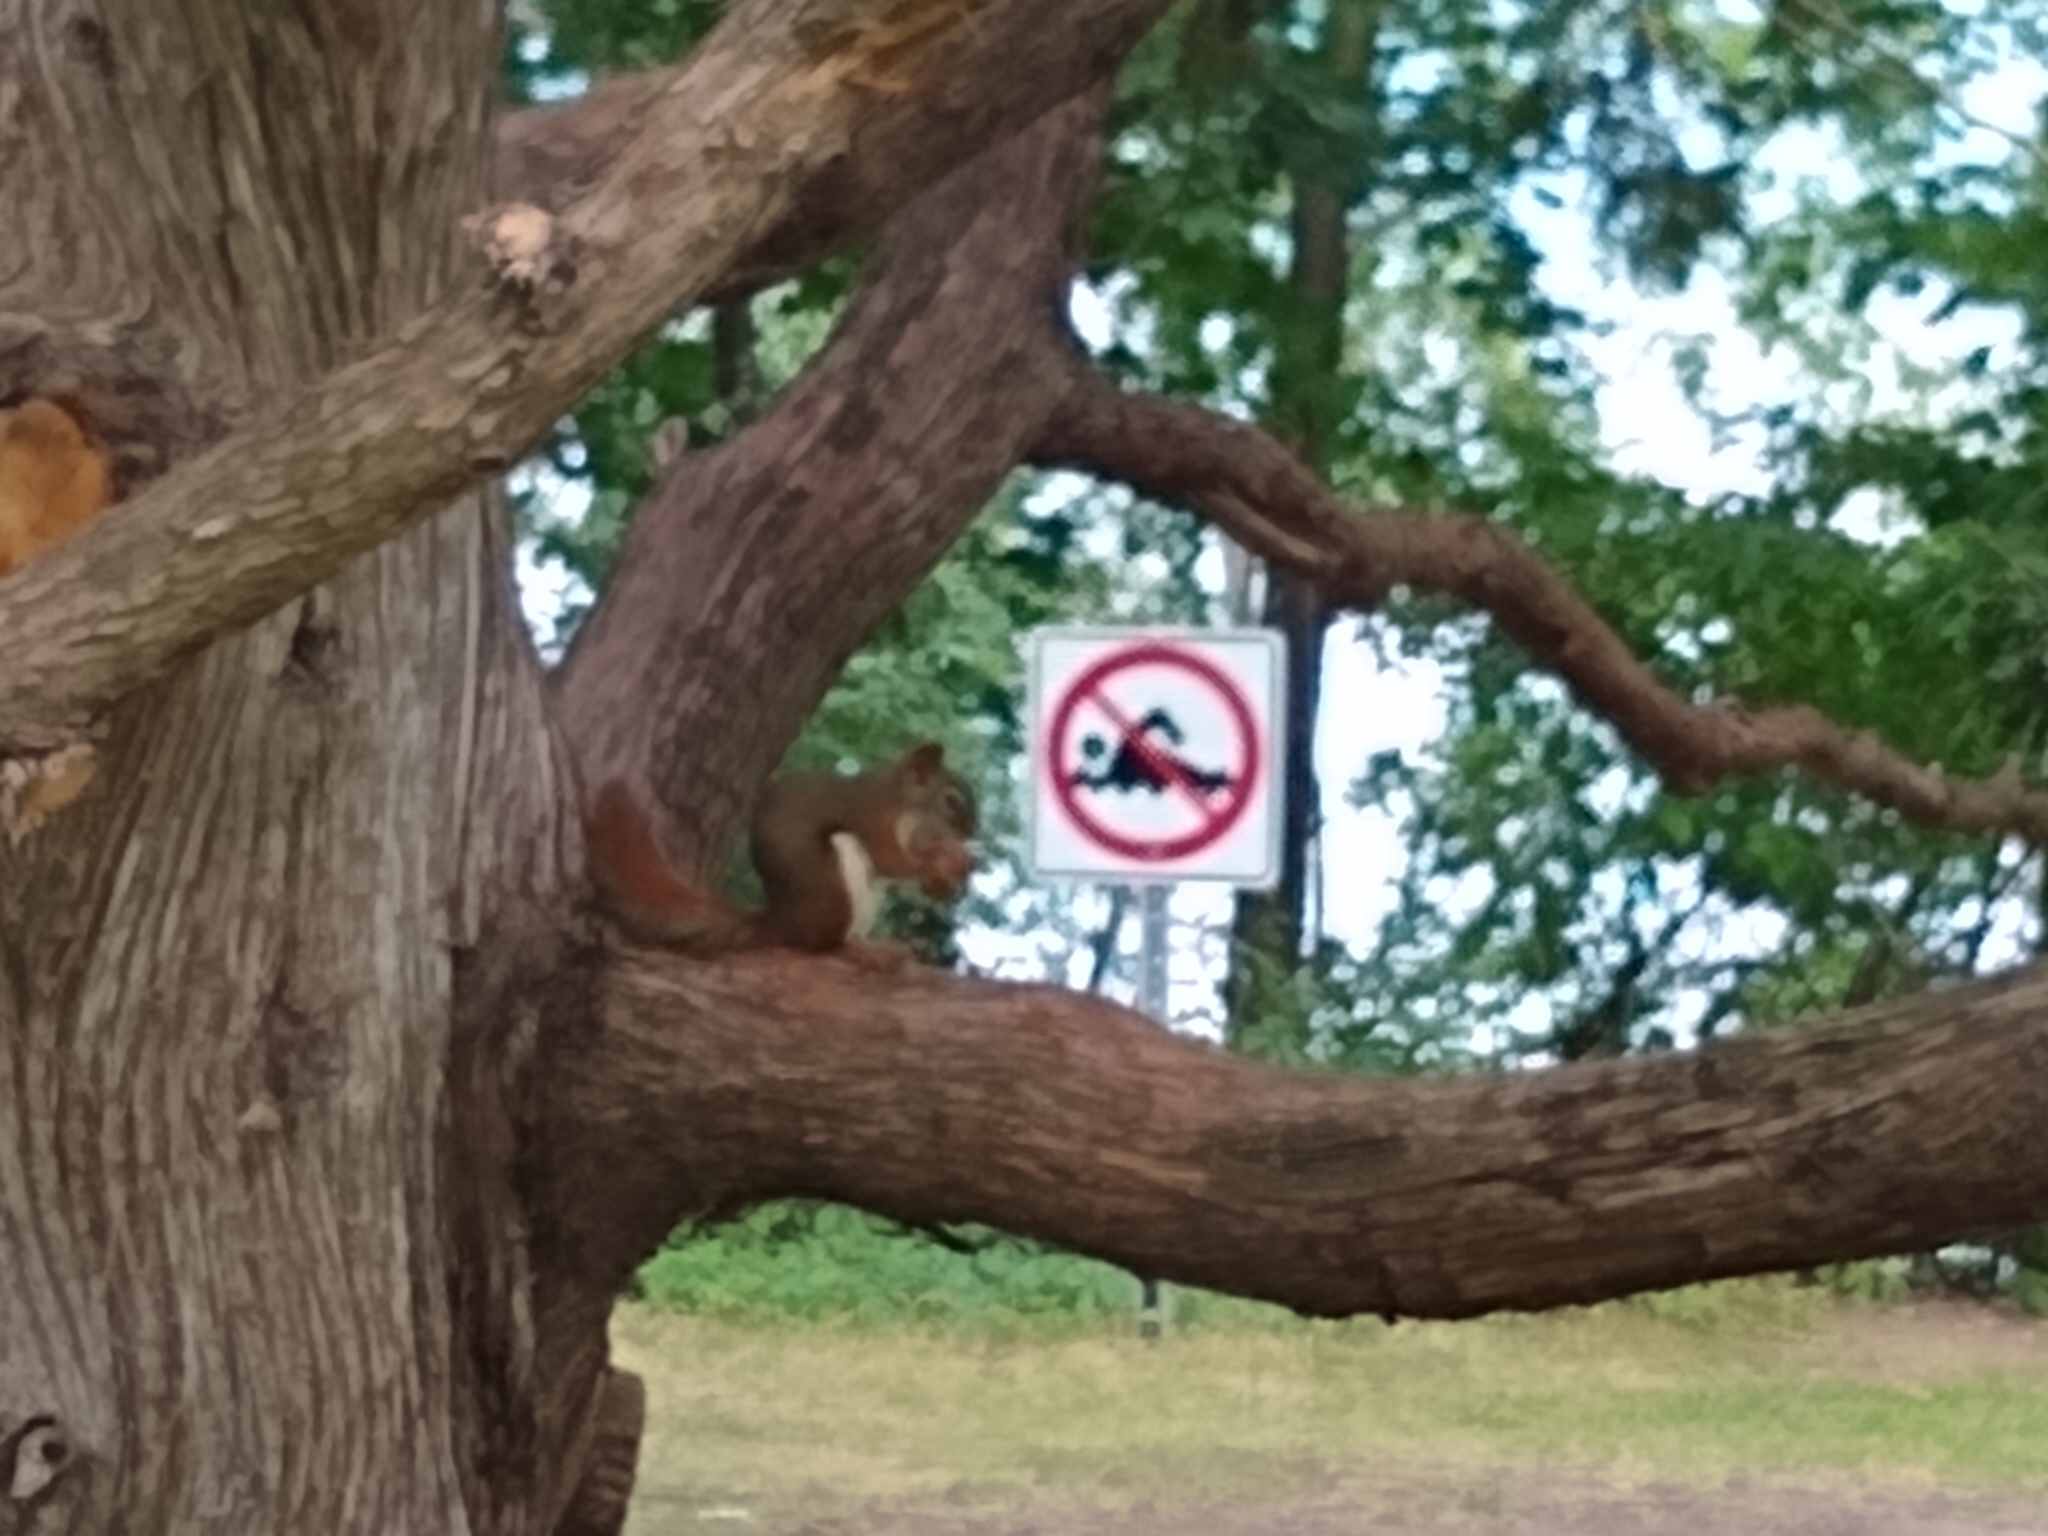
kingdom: Animalia
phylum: Chordata
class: Mammalia
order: Rodentia
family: Sciuridae
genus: Tamiasciurus
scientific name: Tamiasciurus hudsonicus
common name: Red squirrel
